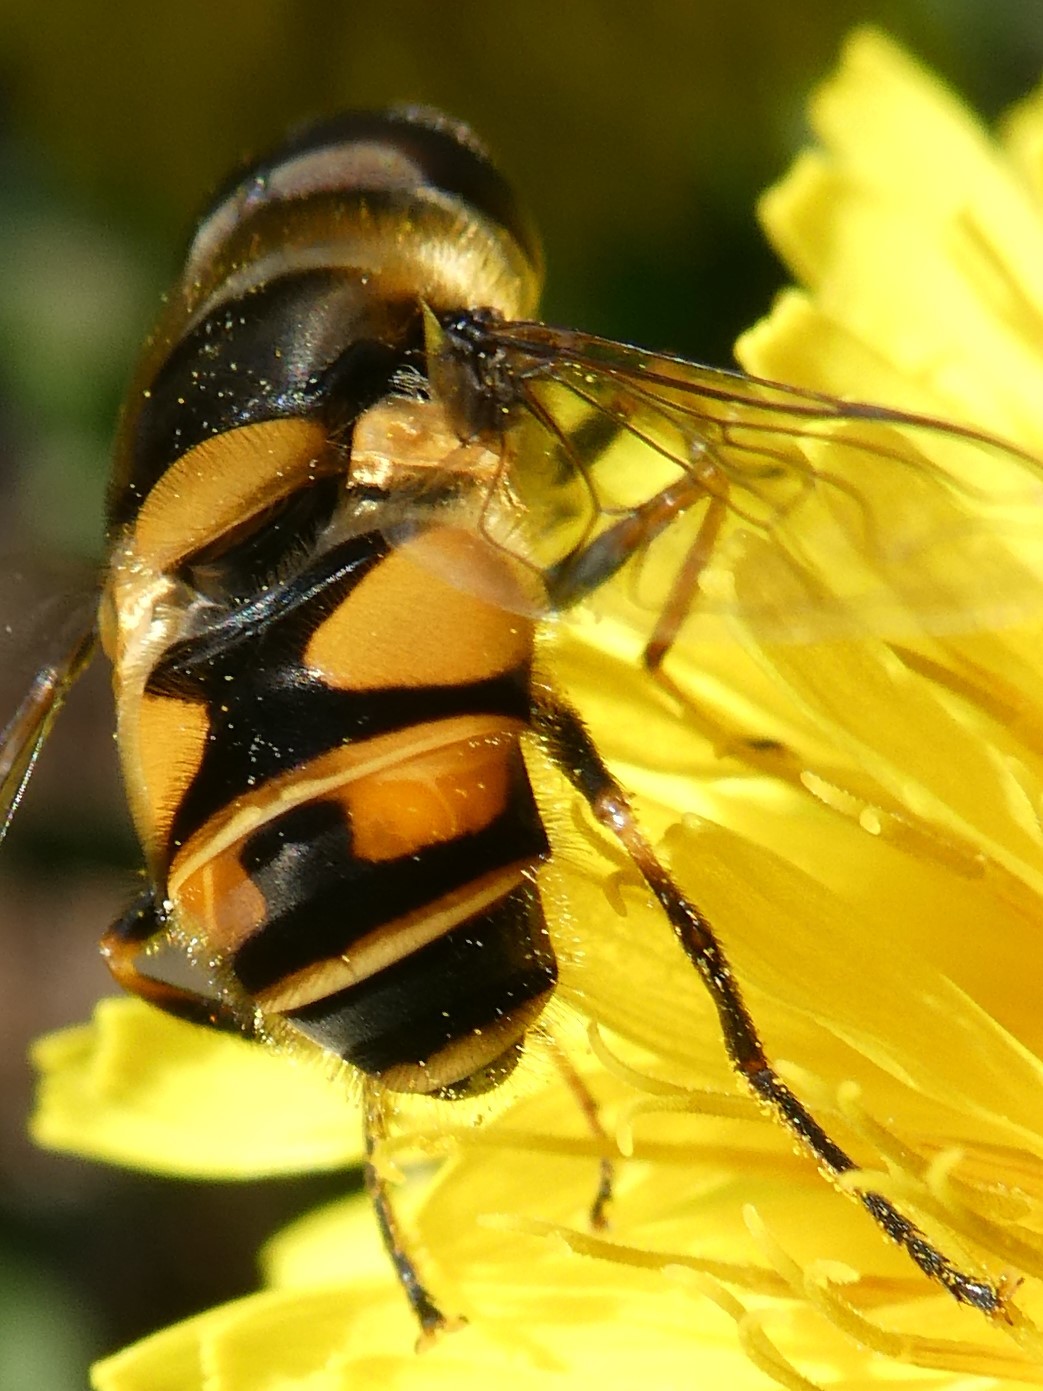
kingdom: Animalia
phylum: Arthropoda
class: Insecta
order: Diptera
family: Syrphidae
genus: Eristalis
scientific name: Eristalis transversa
